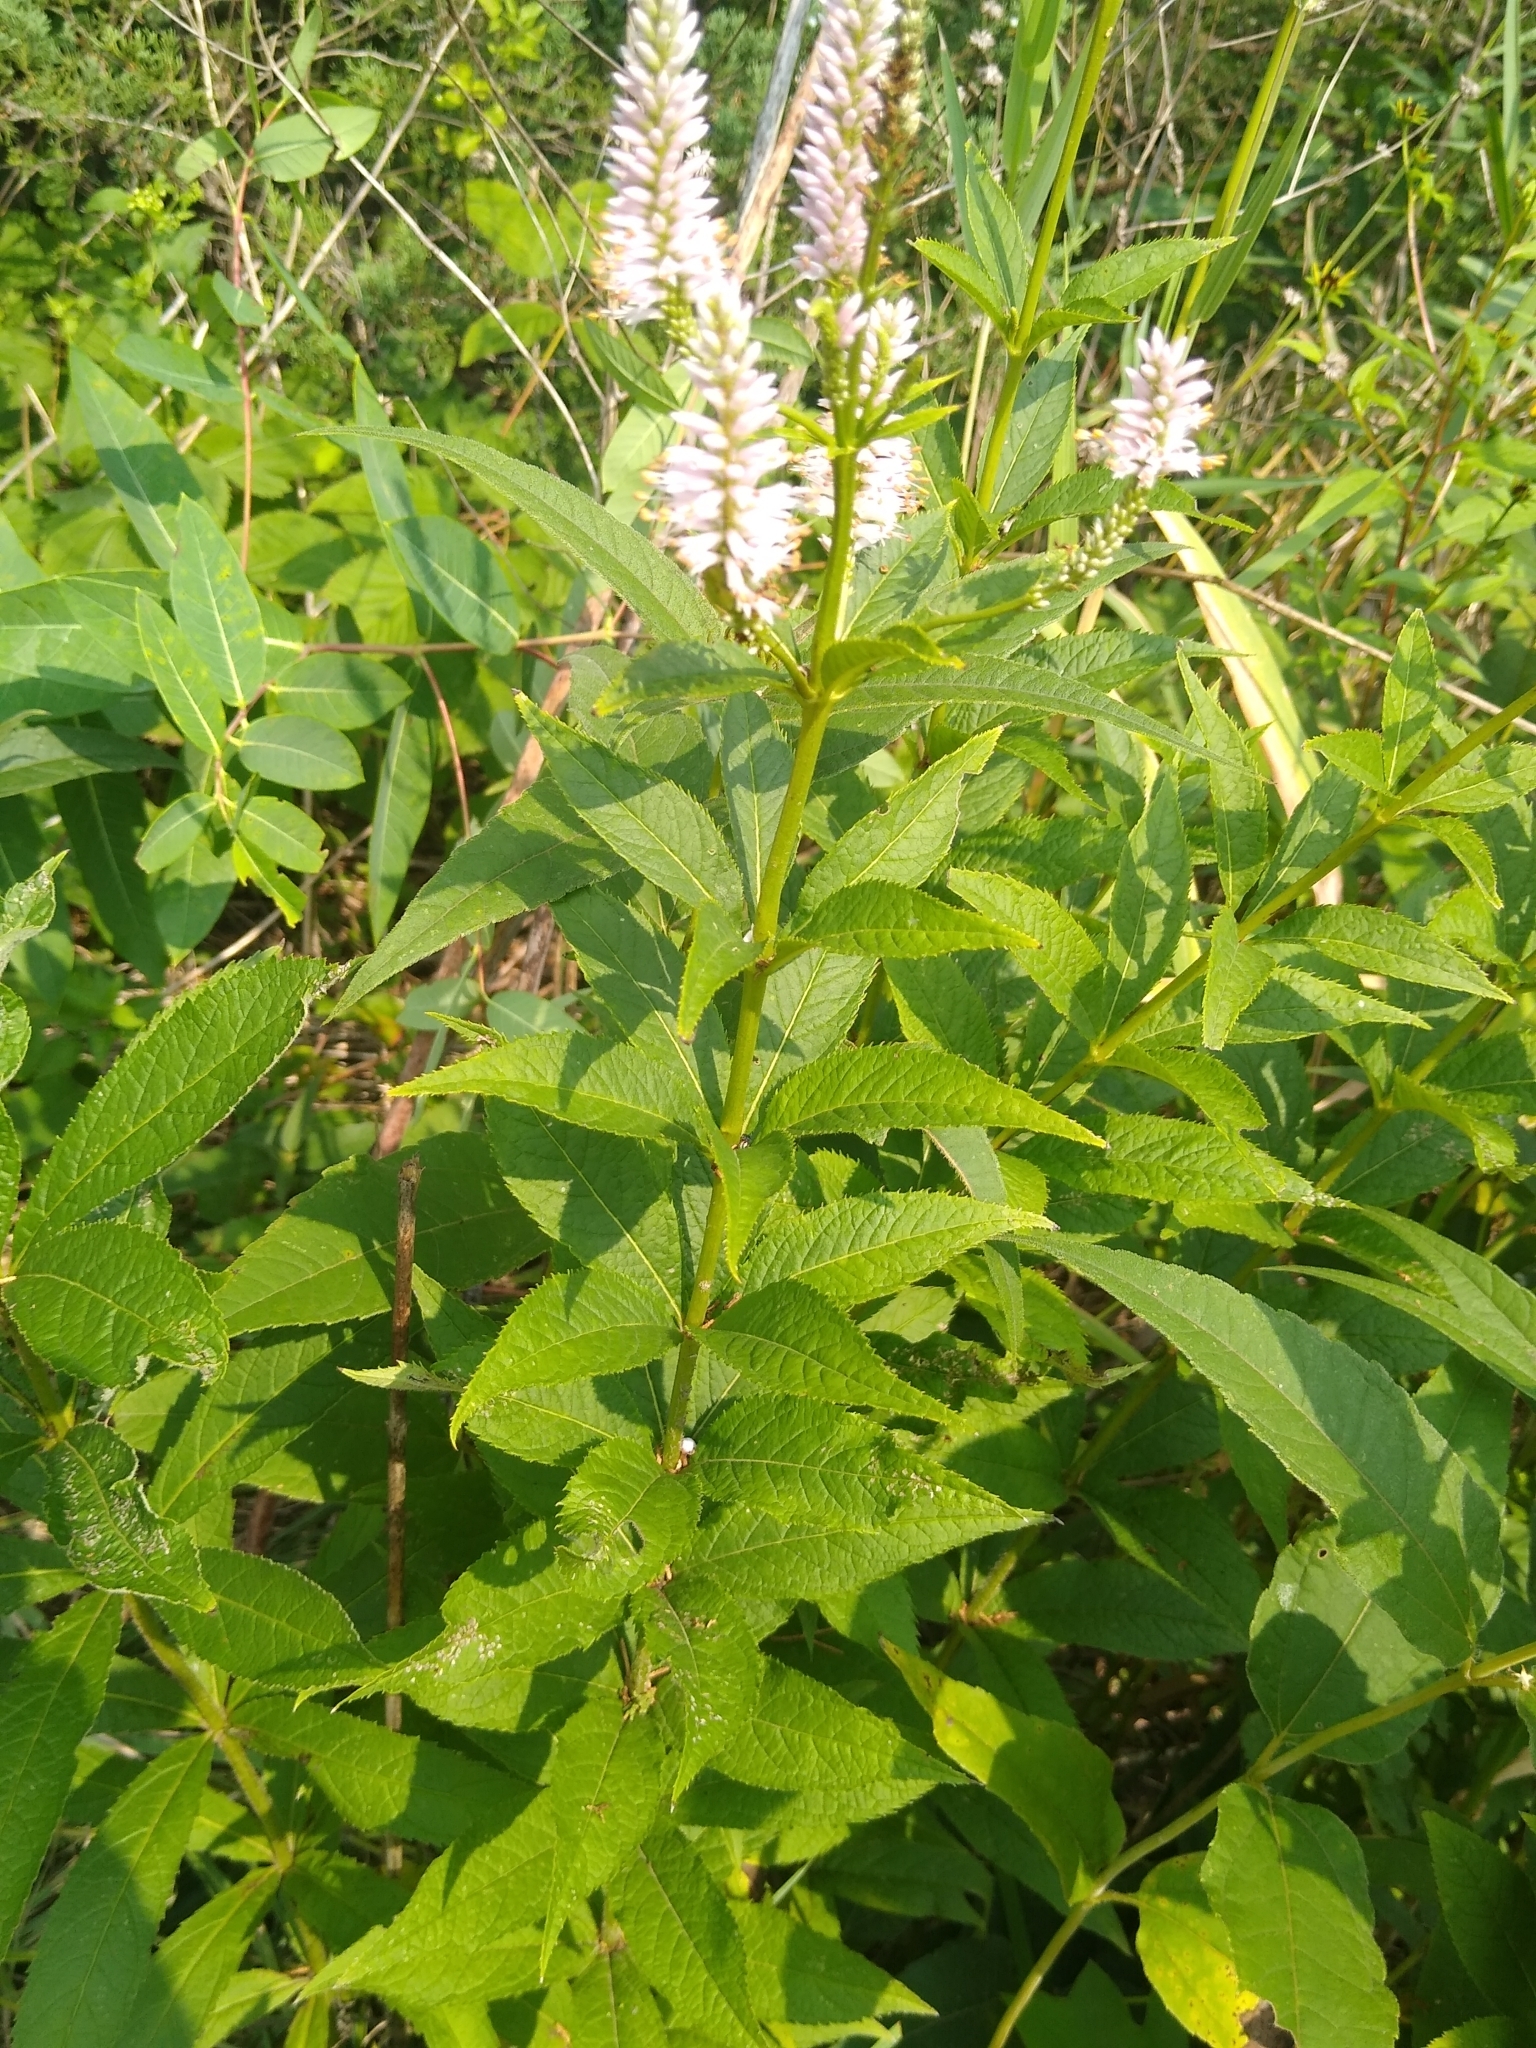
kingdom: Plantae
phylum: Tracheophyta
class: Magnoliopsida
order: Lamiales
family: Plantaginaceae
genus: Veronicastrum
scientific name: Veronicastrum virginicum
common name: Blackroot
